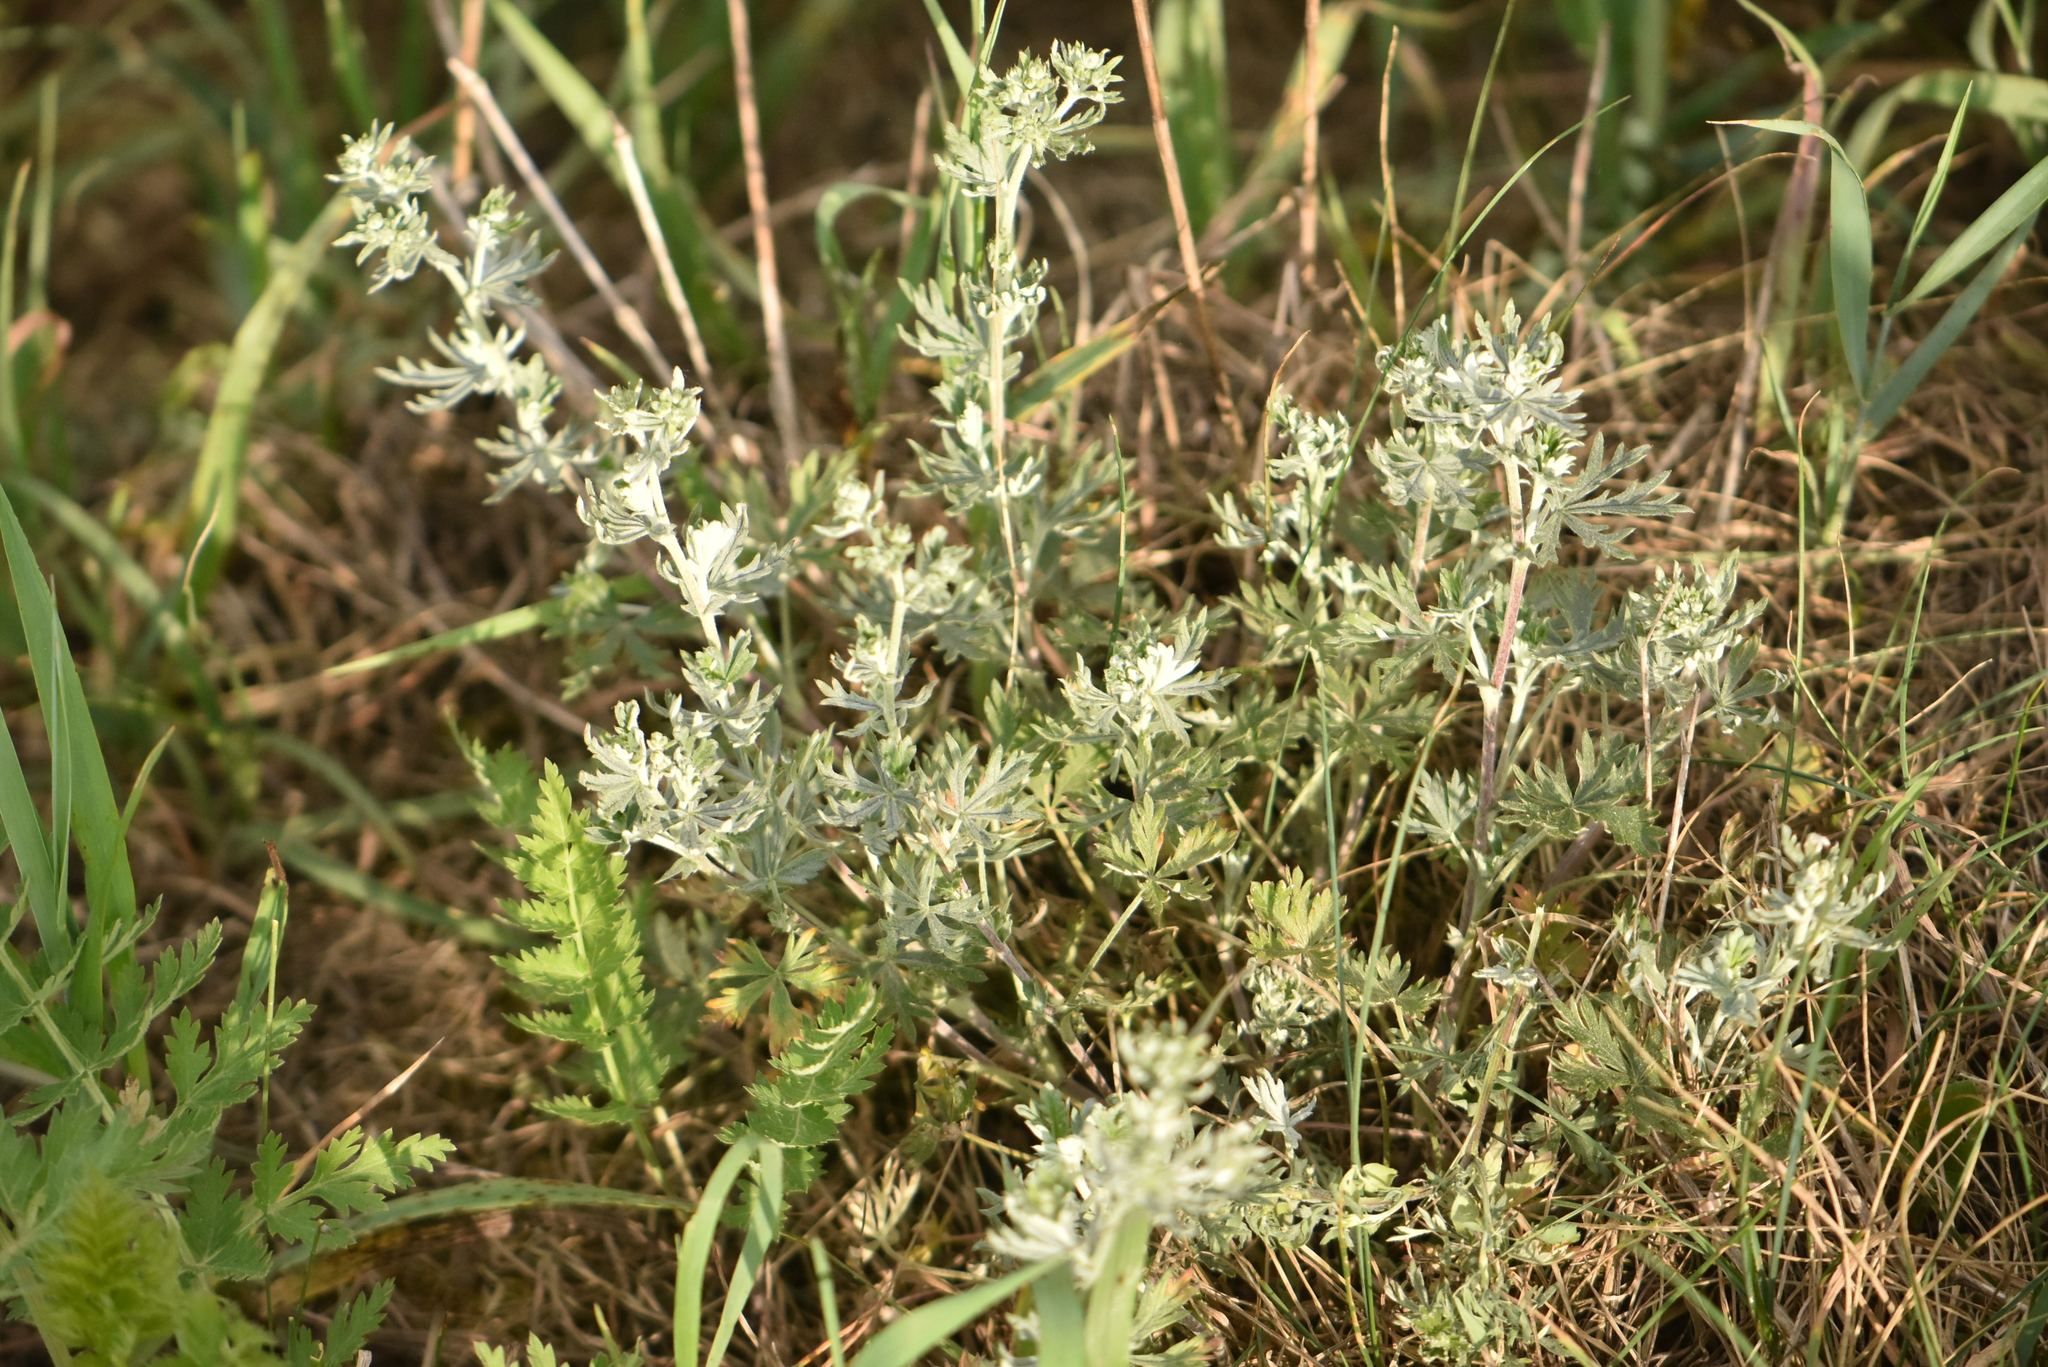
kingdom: Plantae
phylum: Tracheophyta
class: Magnoliopsida
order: Asterales
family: Asteraceae
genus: Artemisia
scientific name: Artemisia absinthium
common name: Wormwood
